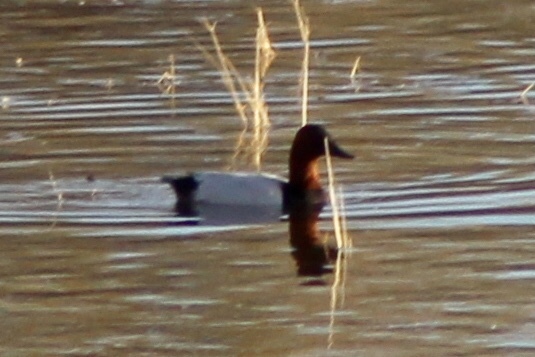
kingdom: Animalia
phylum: Chordata
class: Aves
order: Anseriformes
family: Anatidae
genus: Aythya
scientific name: Aythya valisineria
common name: Canvasback
